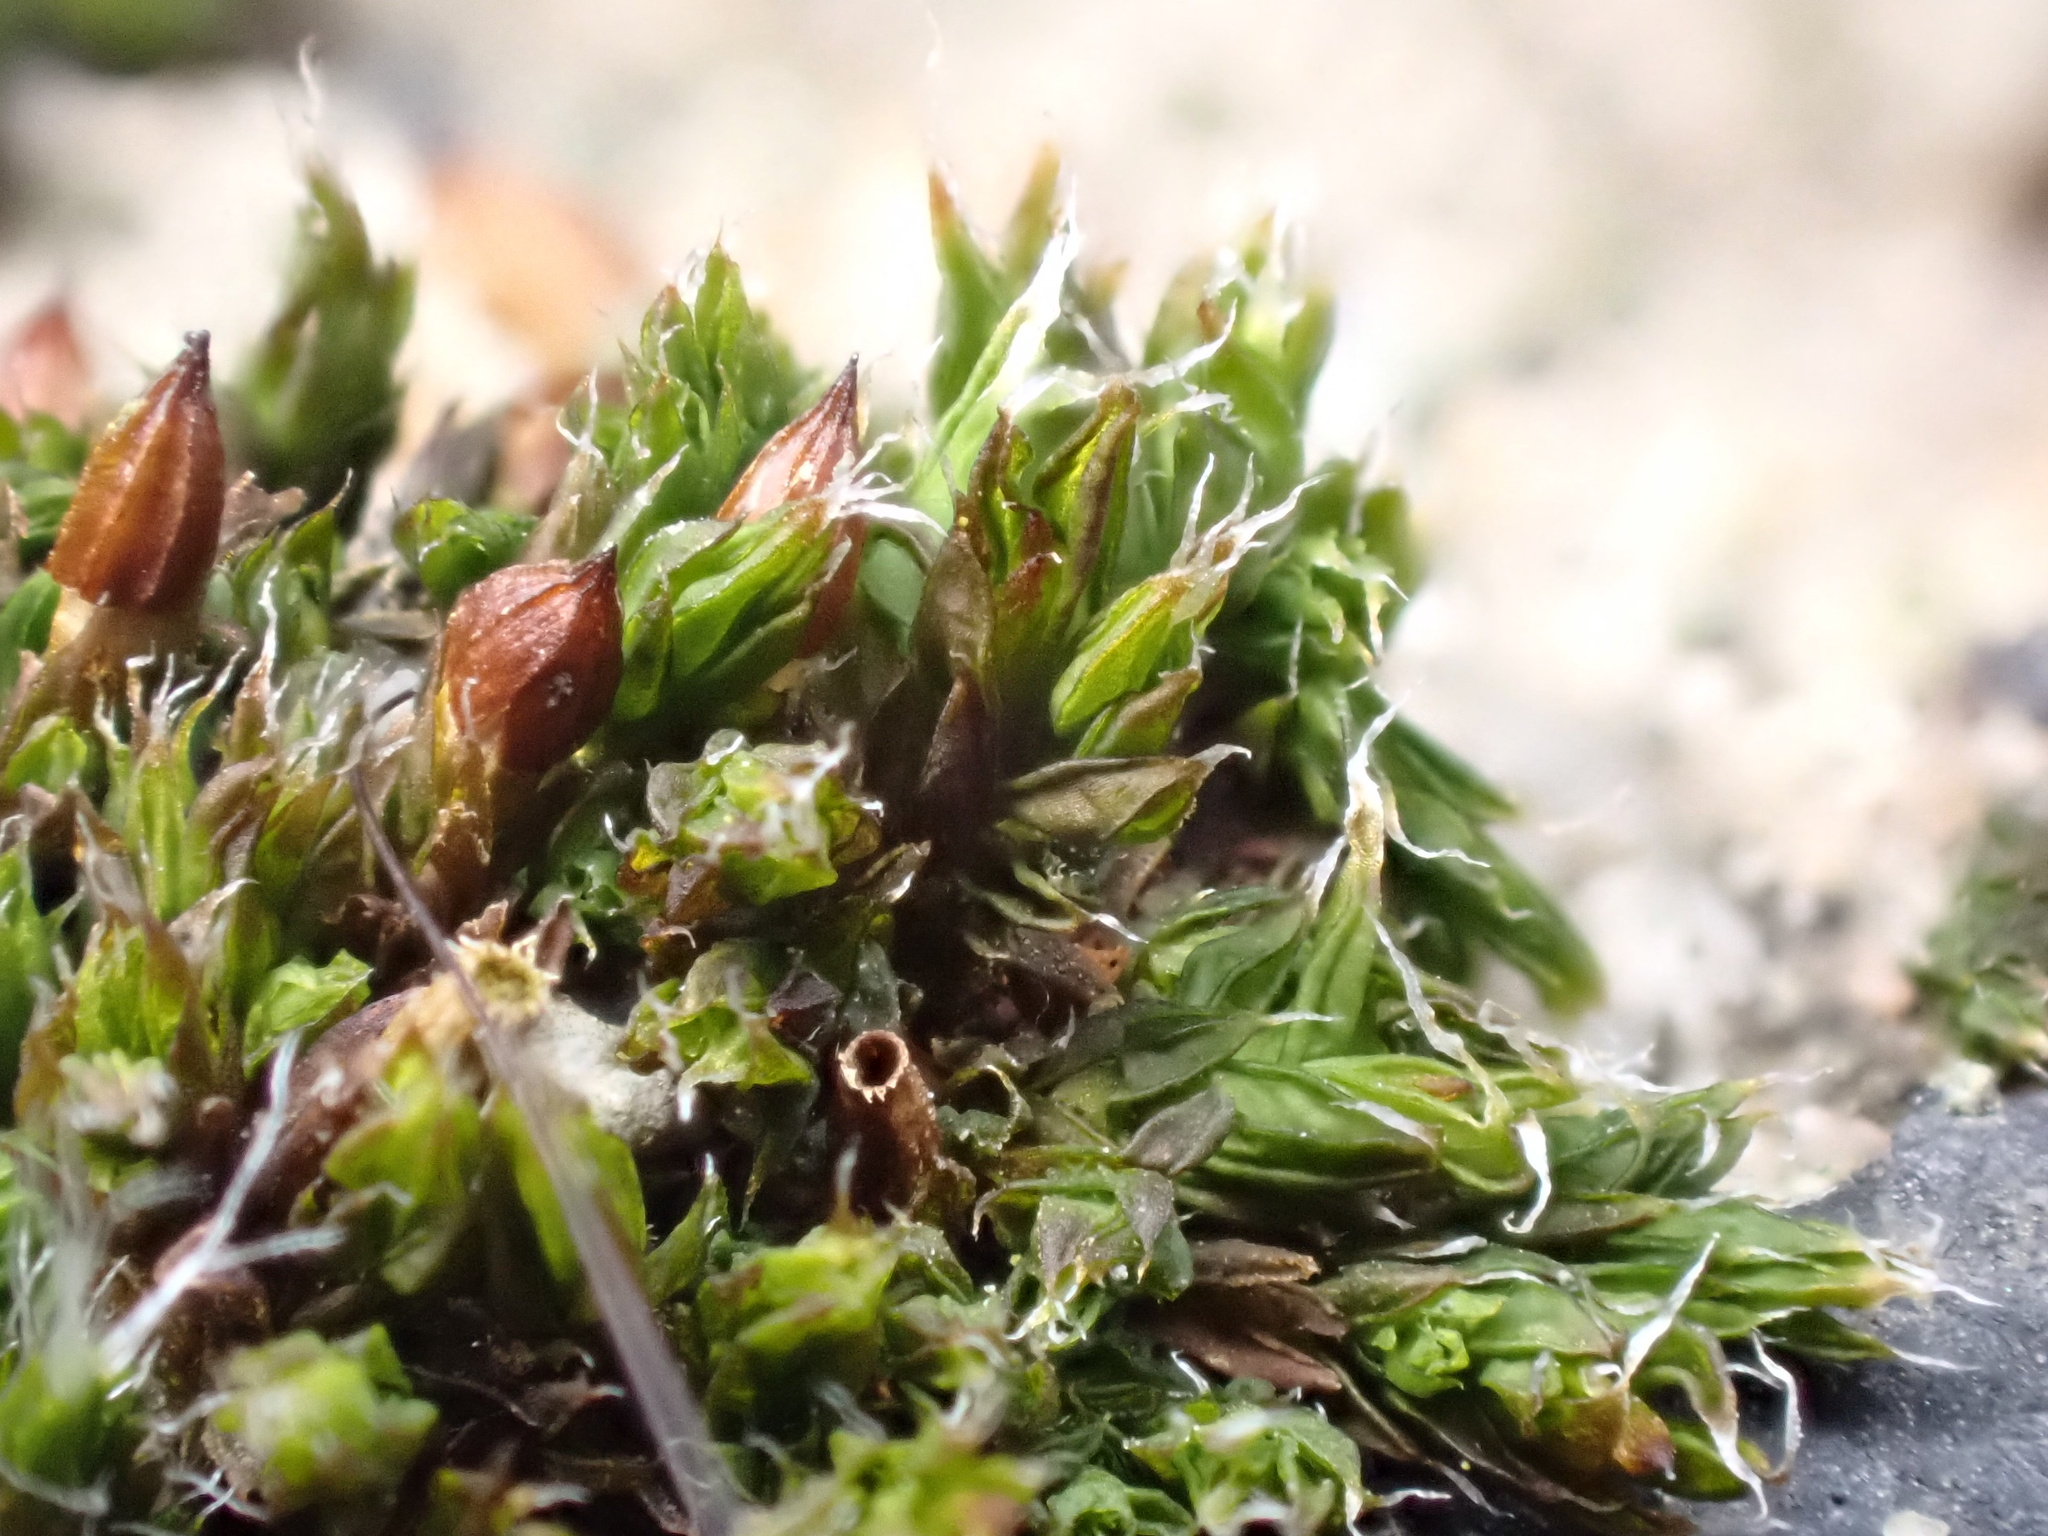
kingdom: Plantae
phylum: Bryophyta
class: Bryopsida
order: Orthotrichales
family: Orthotrichaceae
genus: Orthotrichum
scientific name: Orthotrichum diaphanum
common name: White-tipped bristle-moss
